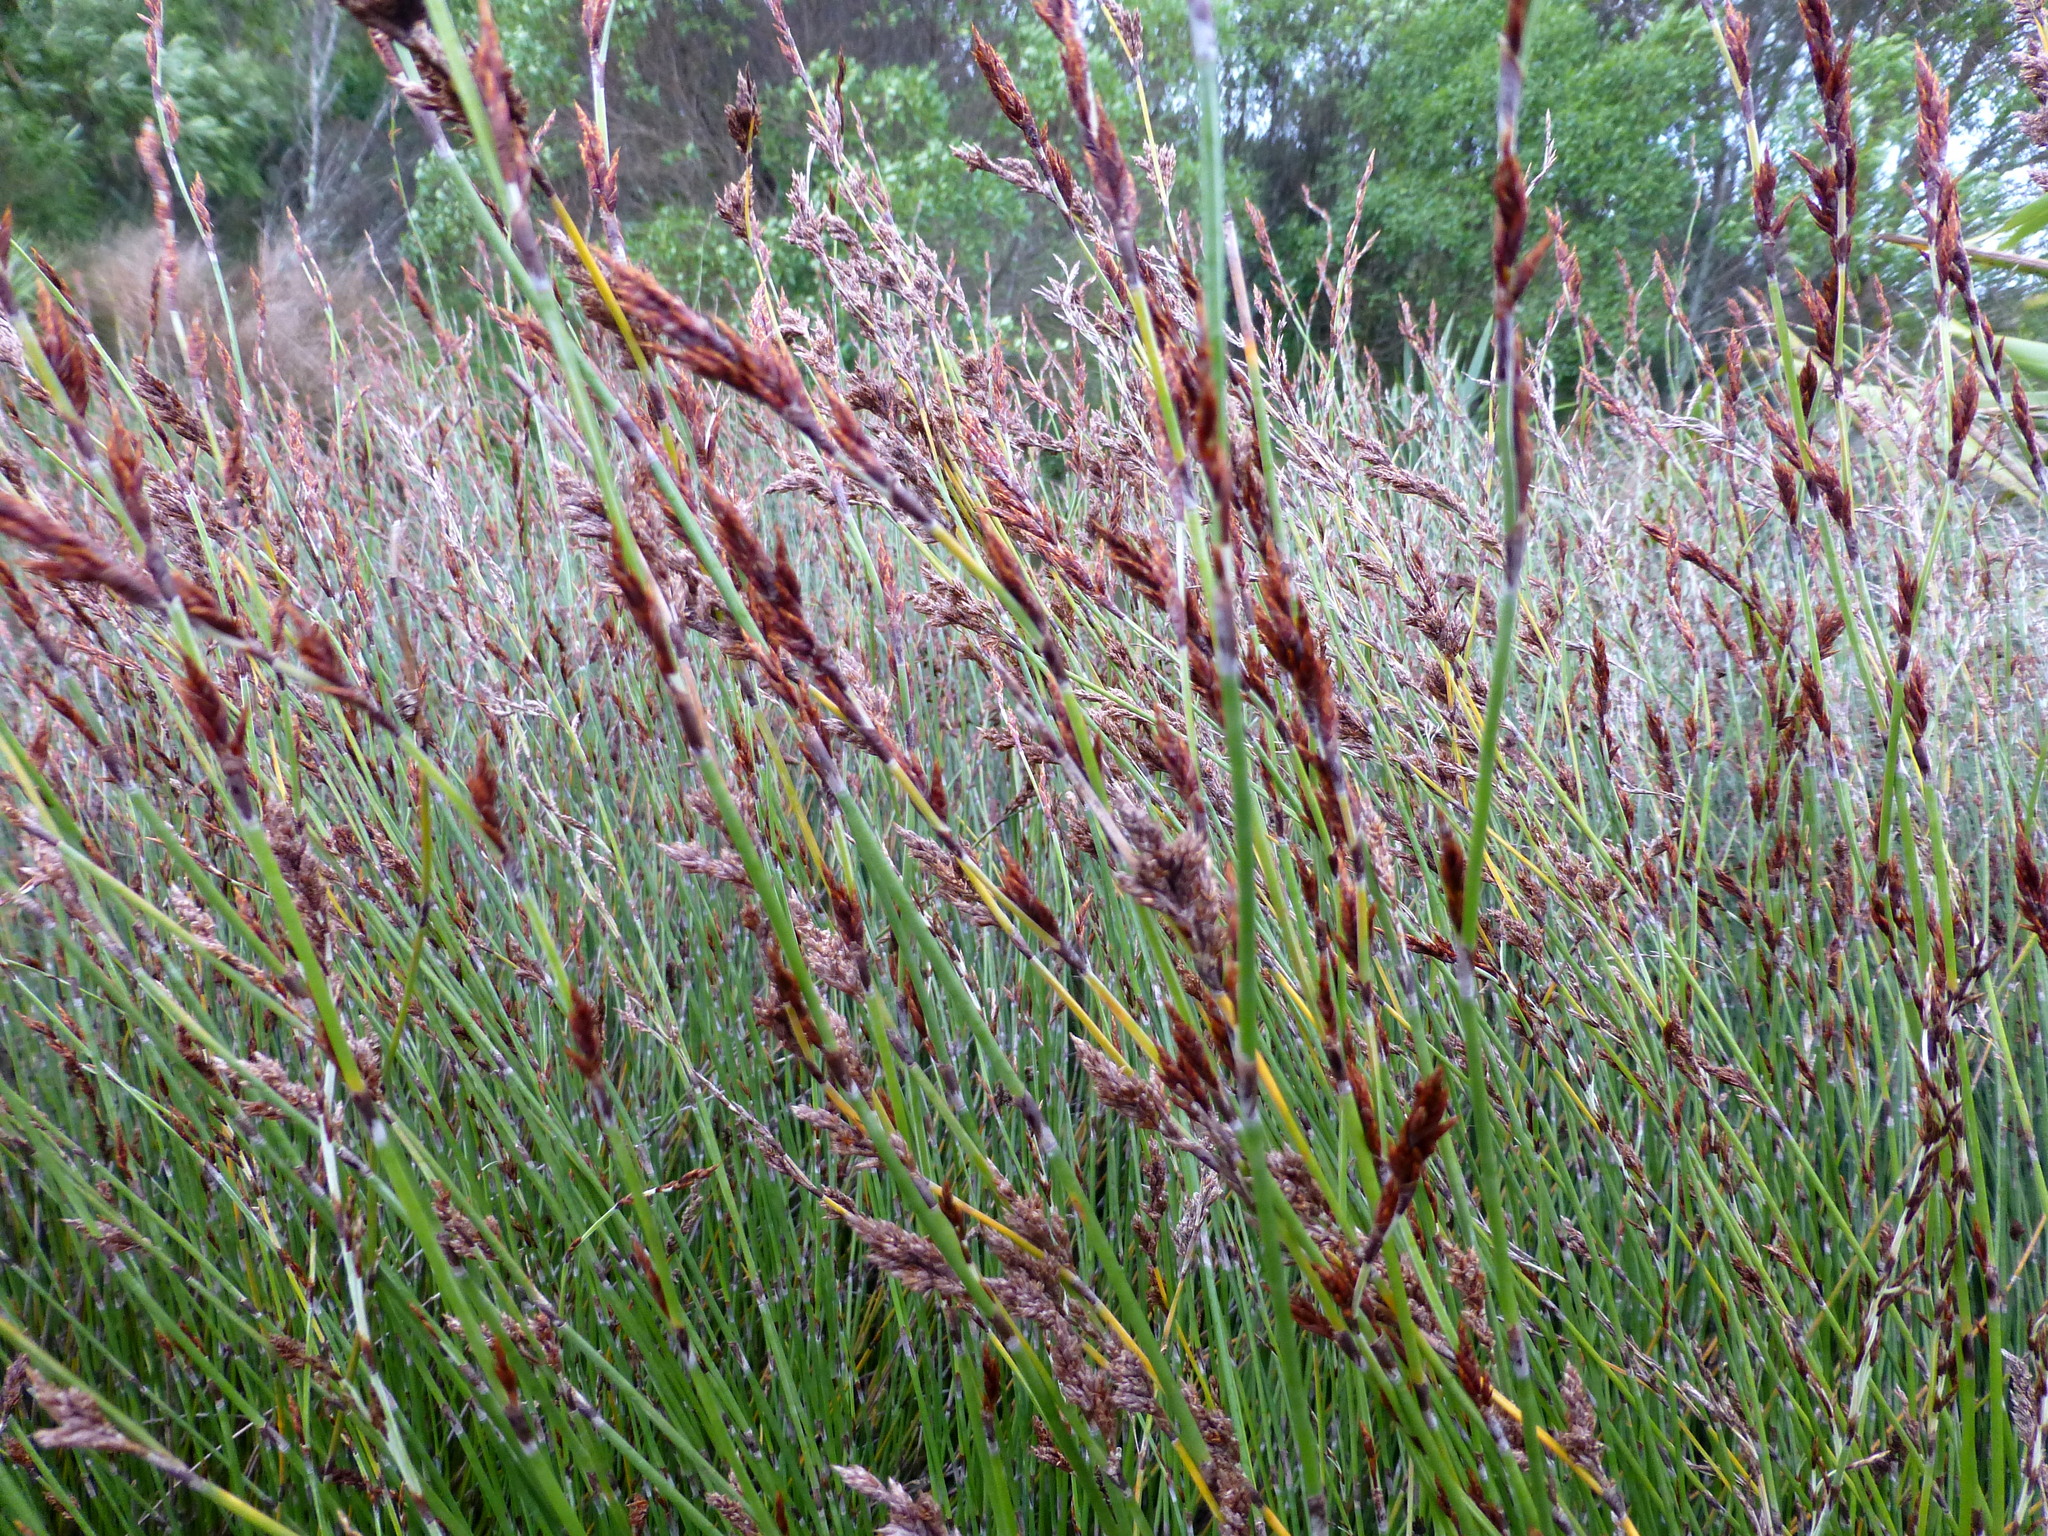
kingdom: Plantae
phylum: Tracheophyta
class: Liliopsida
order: Poales
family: Restionaceae
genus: Apodasmia
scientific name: Apodasmia similis
